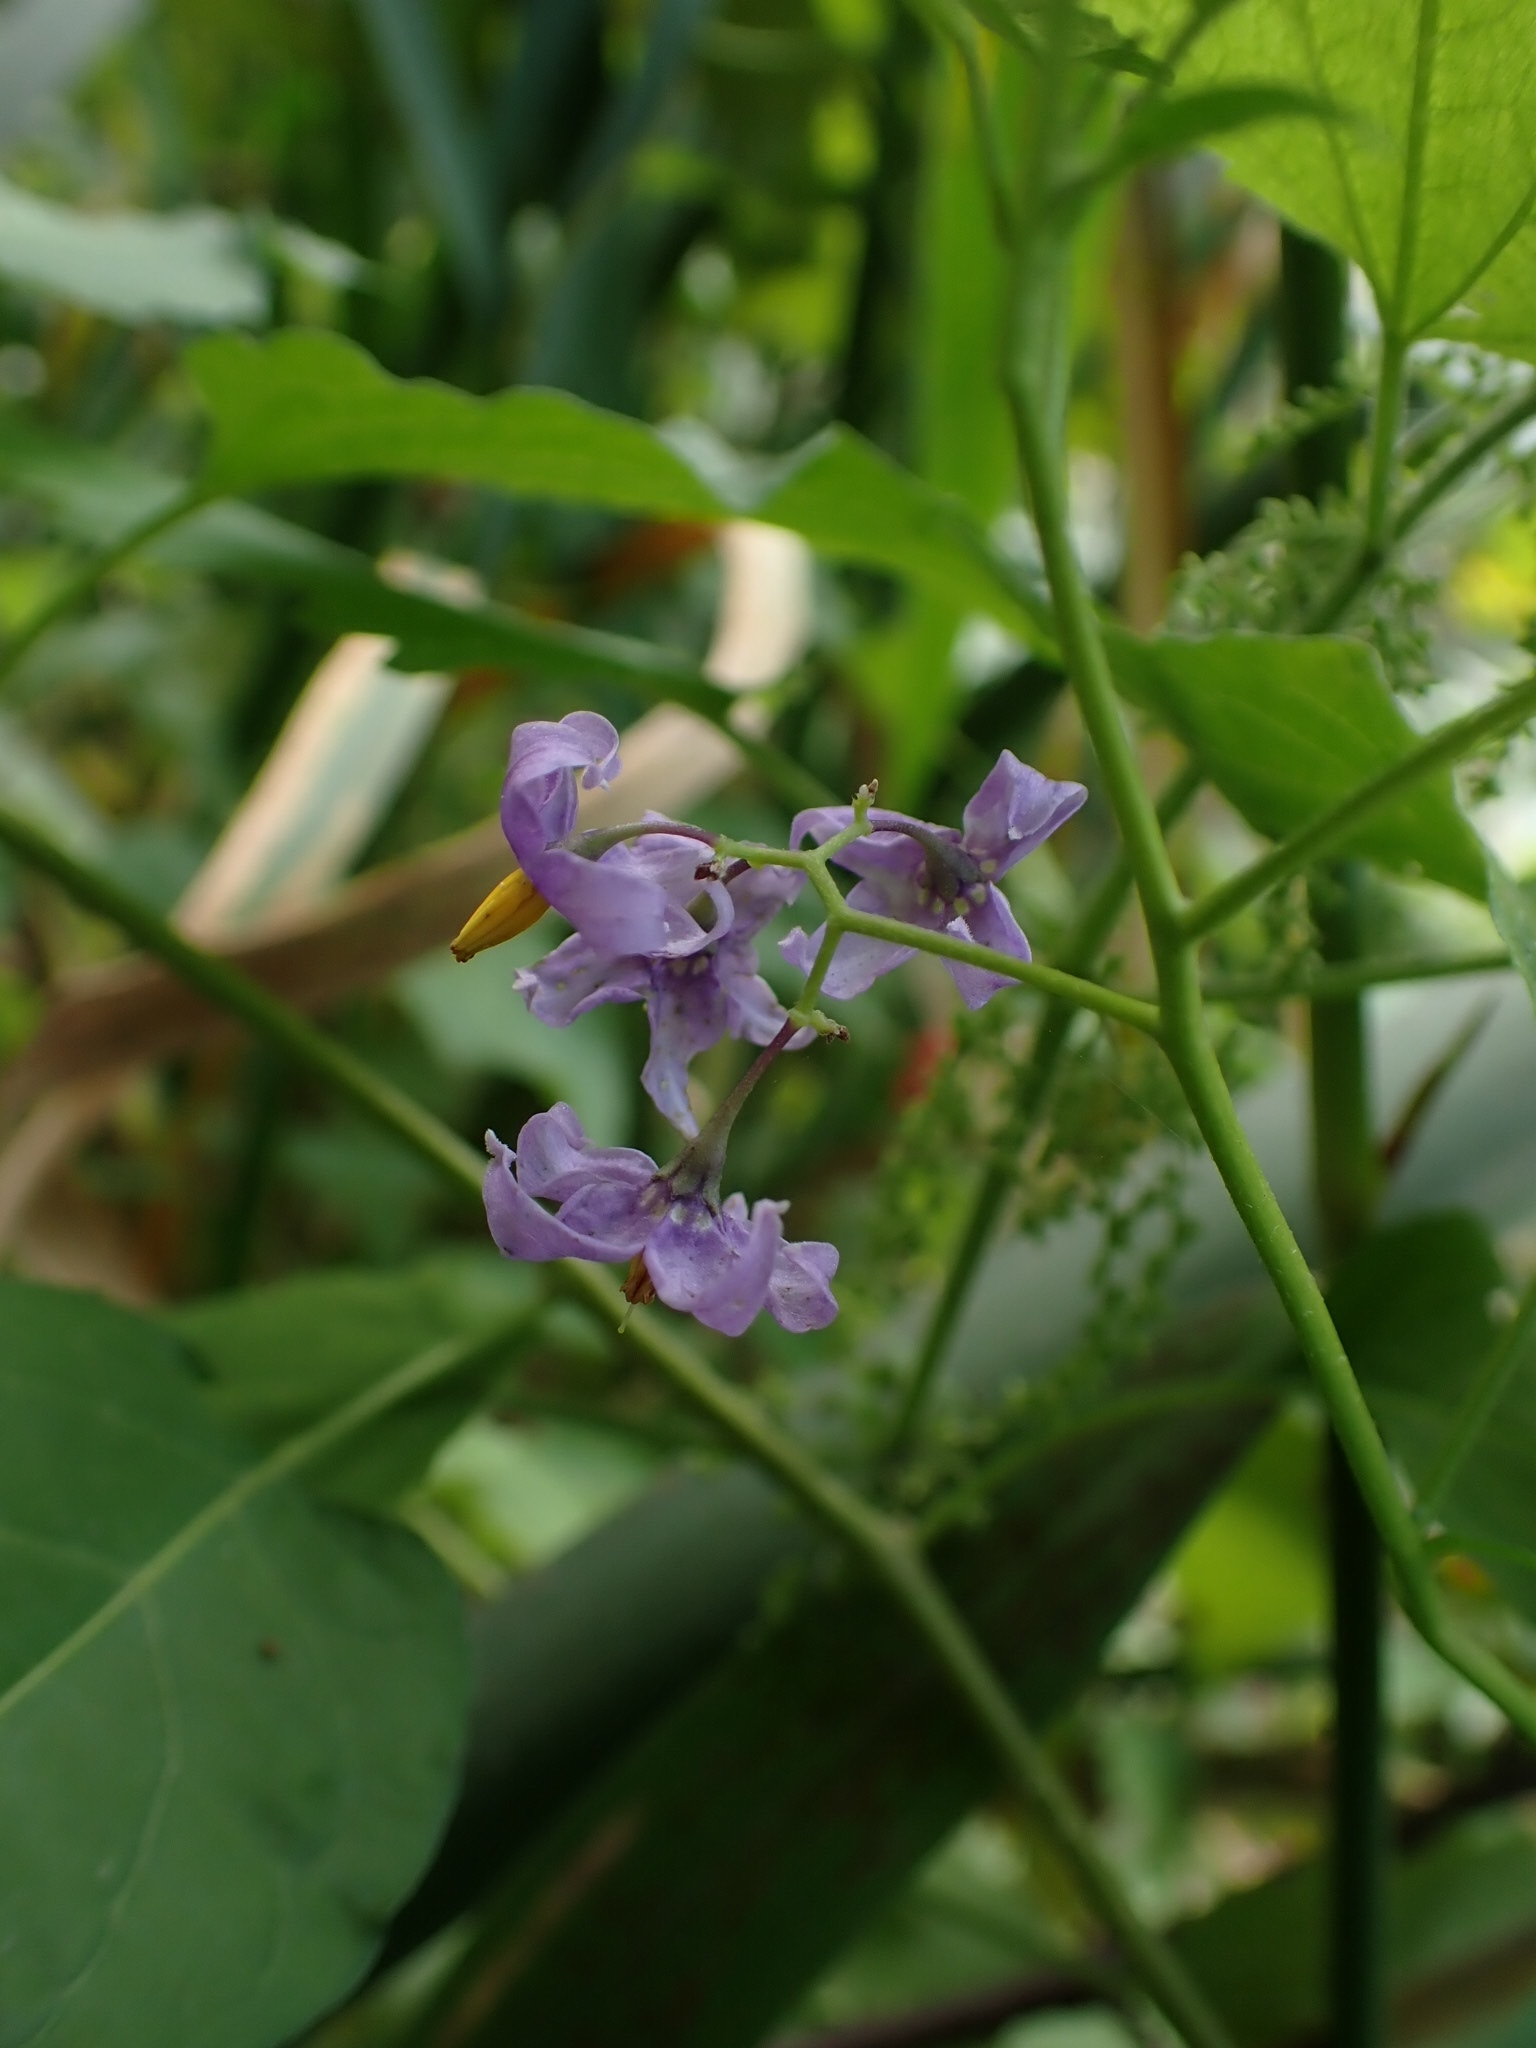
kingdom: Plantae
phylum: Tracheophyta
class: Magnoliopsida
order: Solanales
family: Solanaceae
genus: Solanum
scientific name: Solanum dulcamara
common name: Climbing nightshade
